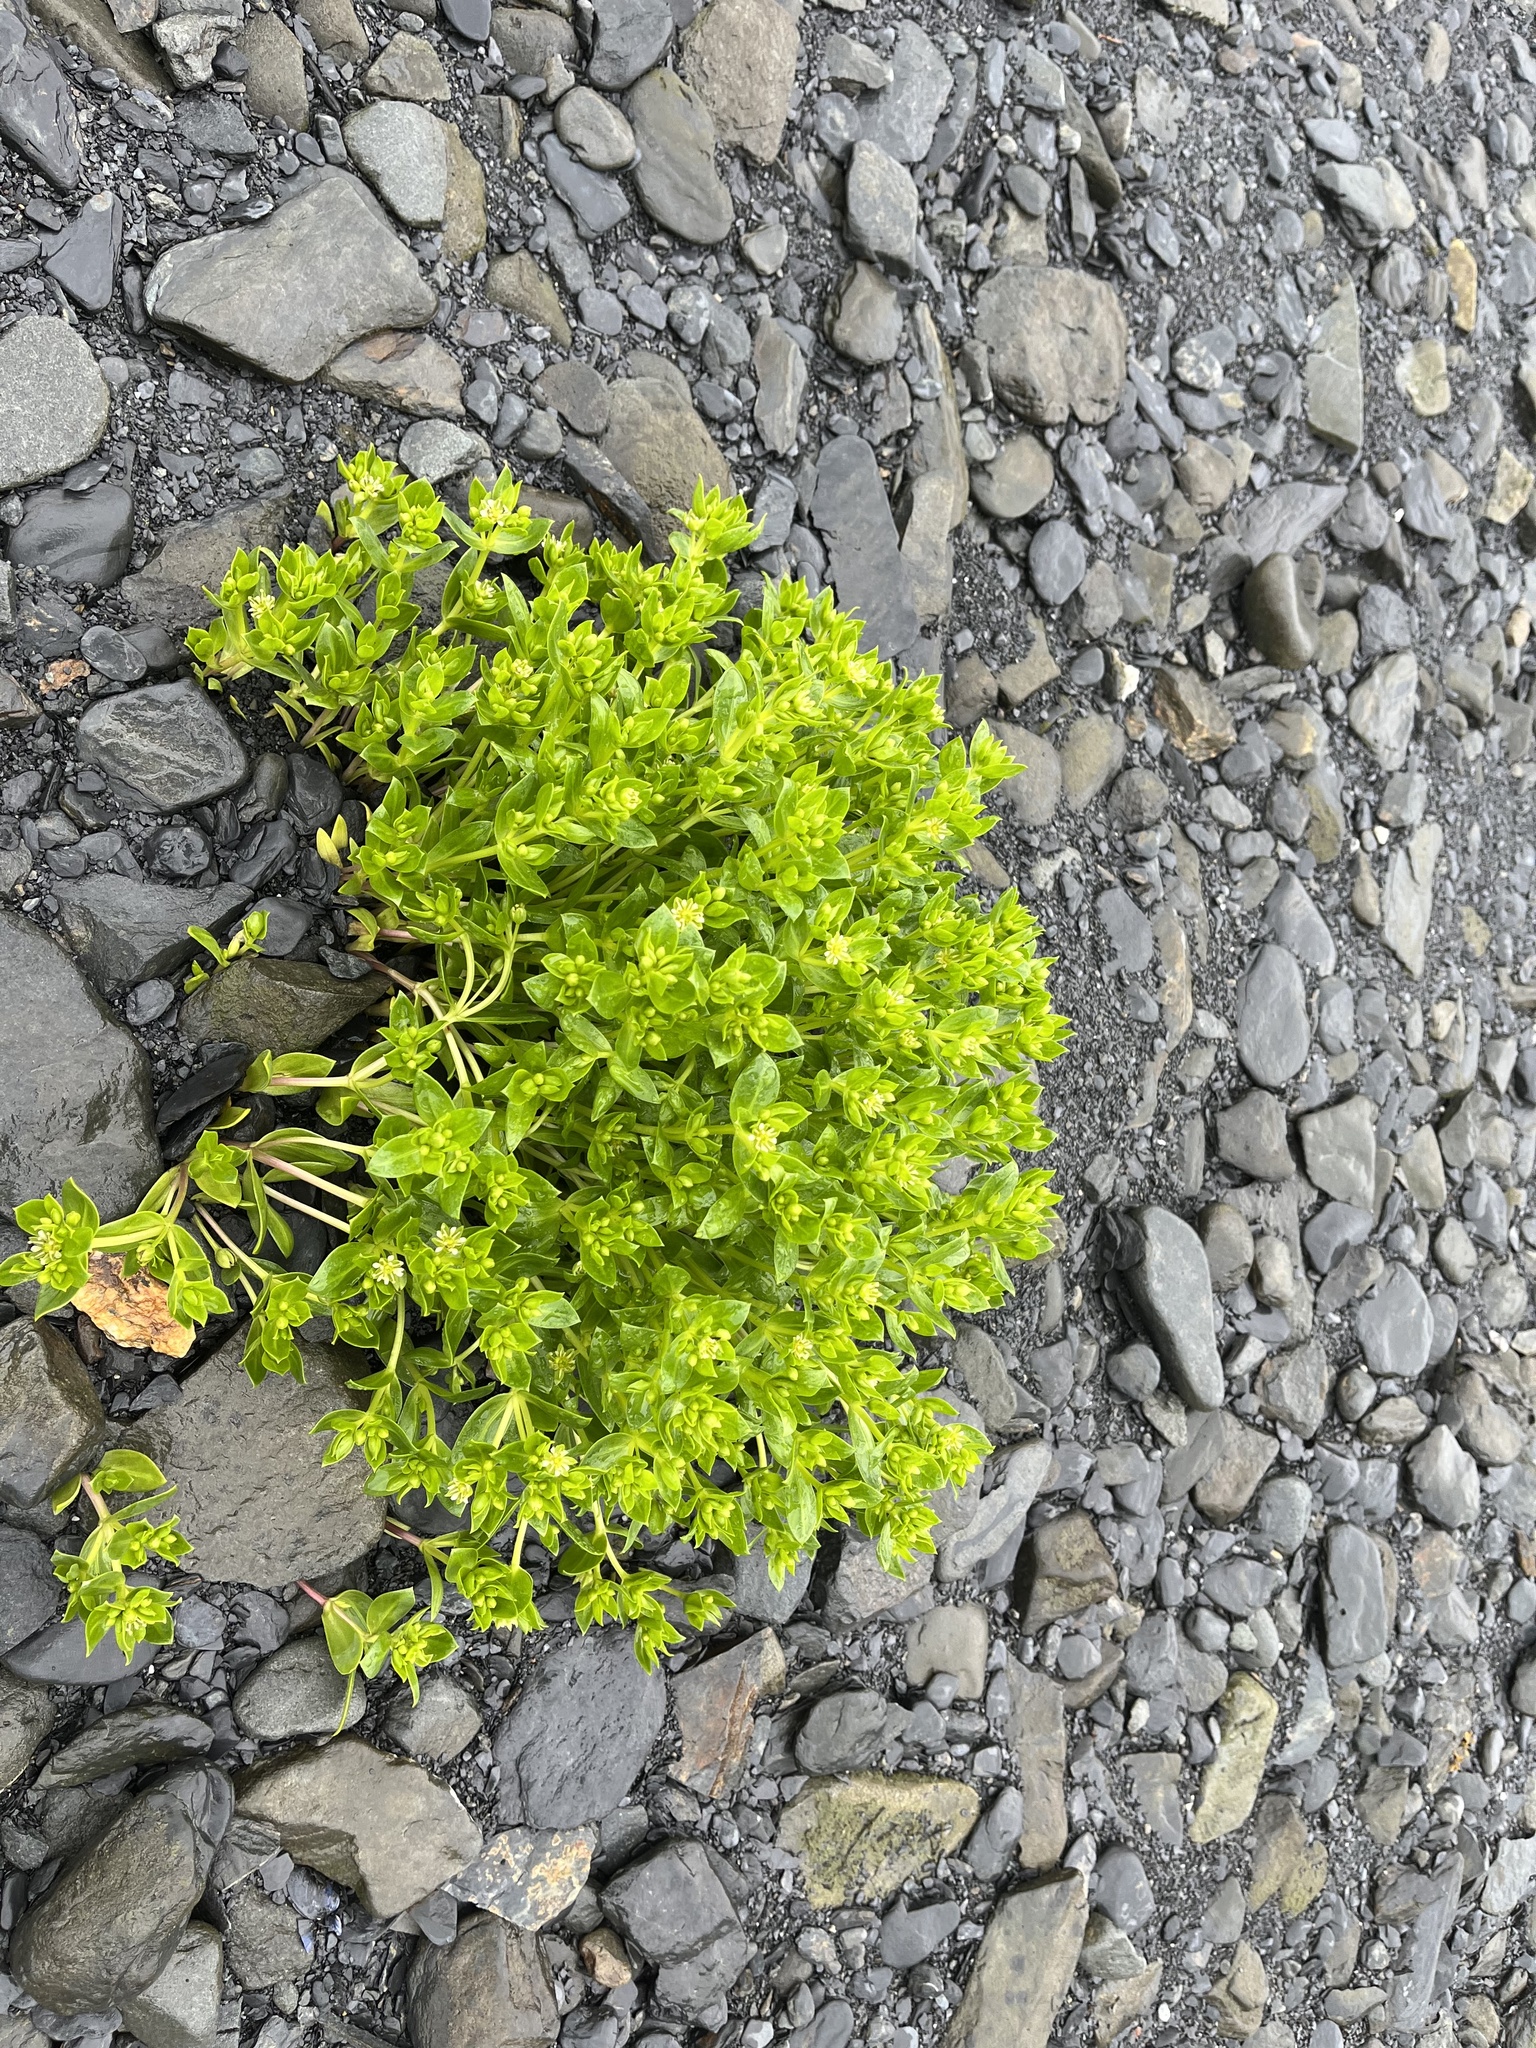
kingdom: Plantae
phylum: Tracheophyta
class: Magnoliopsida
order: Caryophyllales
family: Caryophyllaceae
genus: Honckenya
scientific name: Honckenya peploides
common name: Sea sandwort
